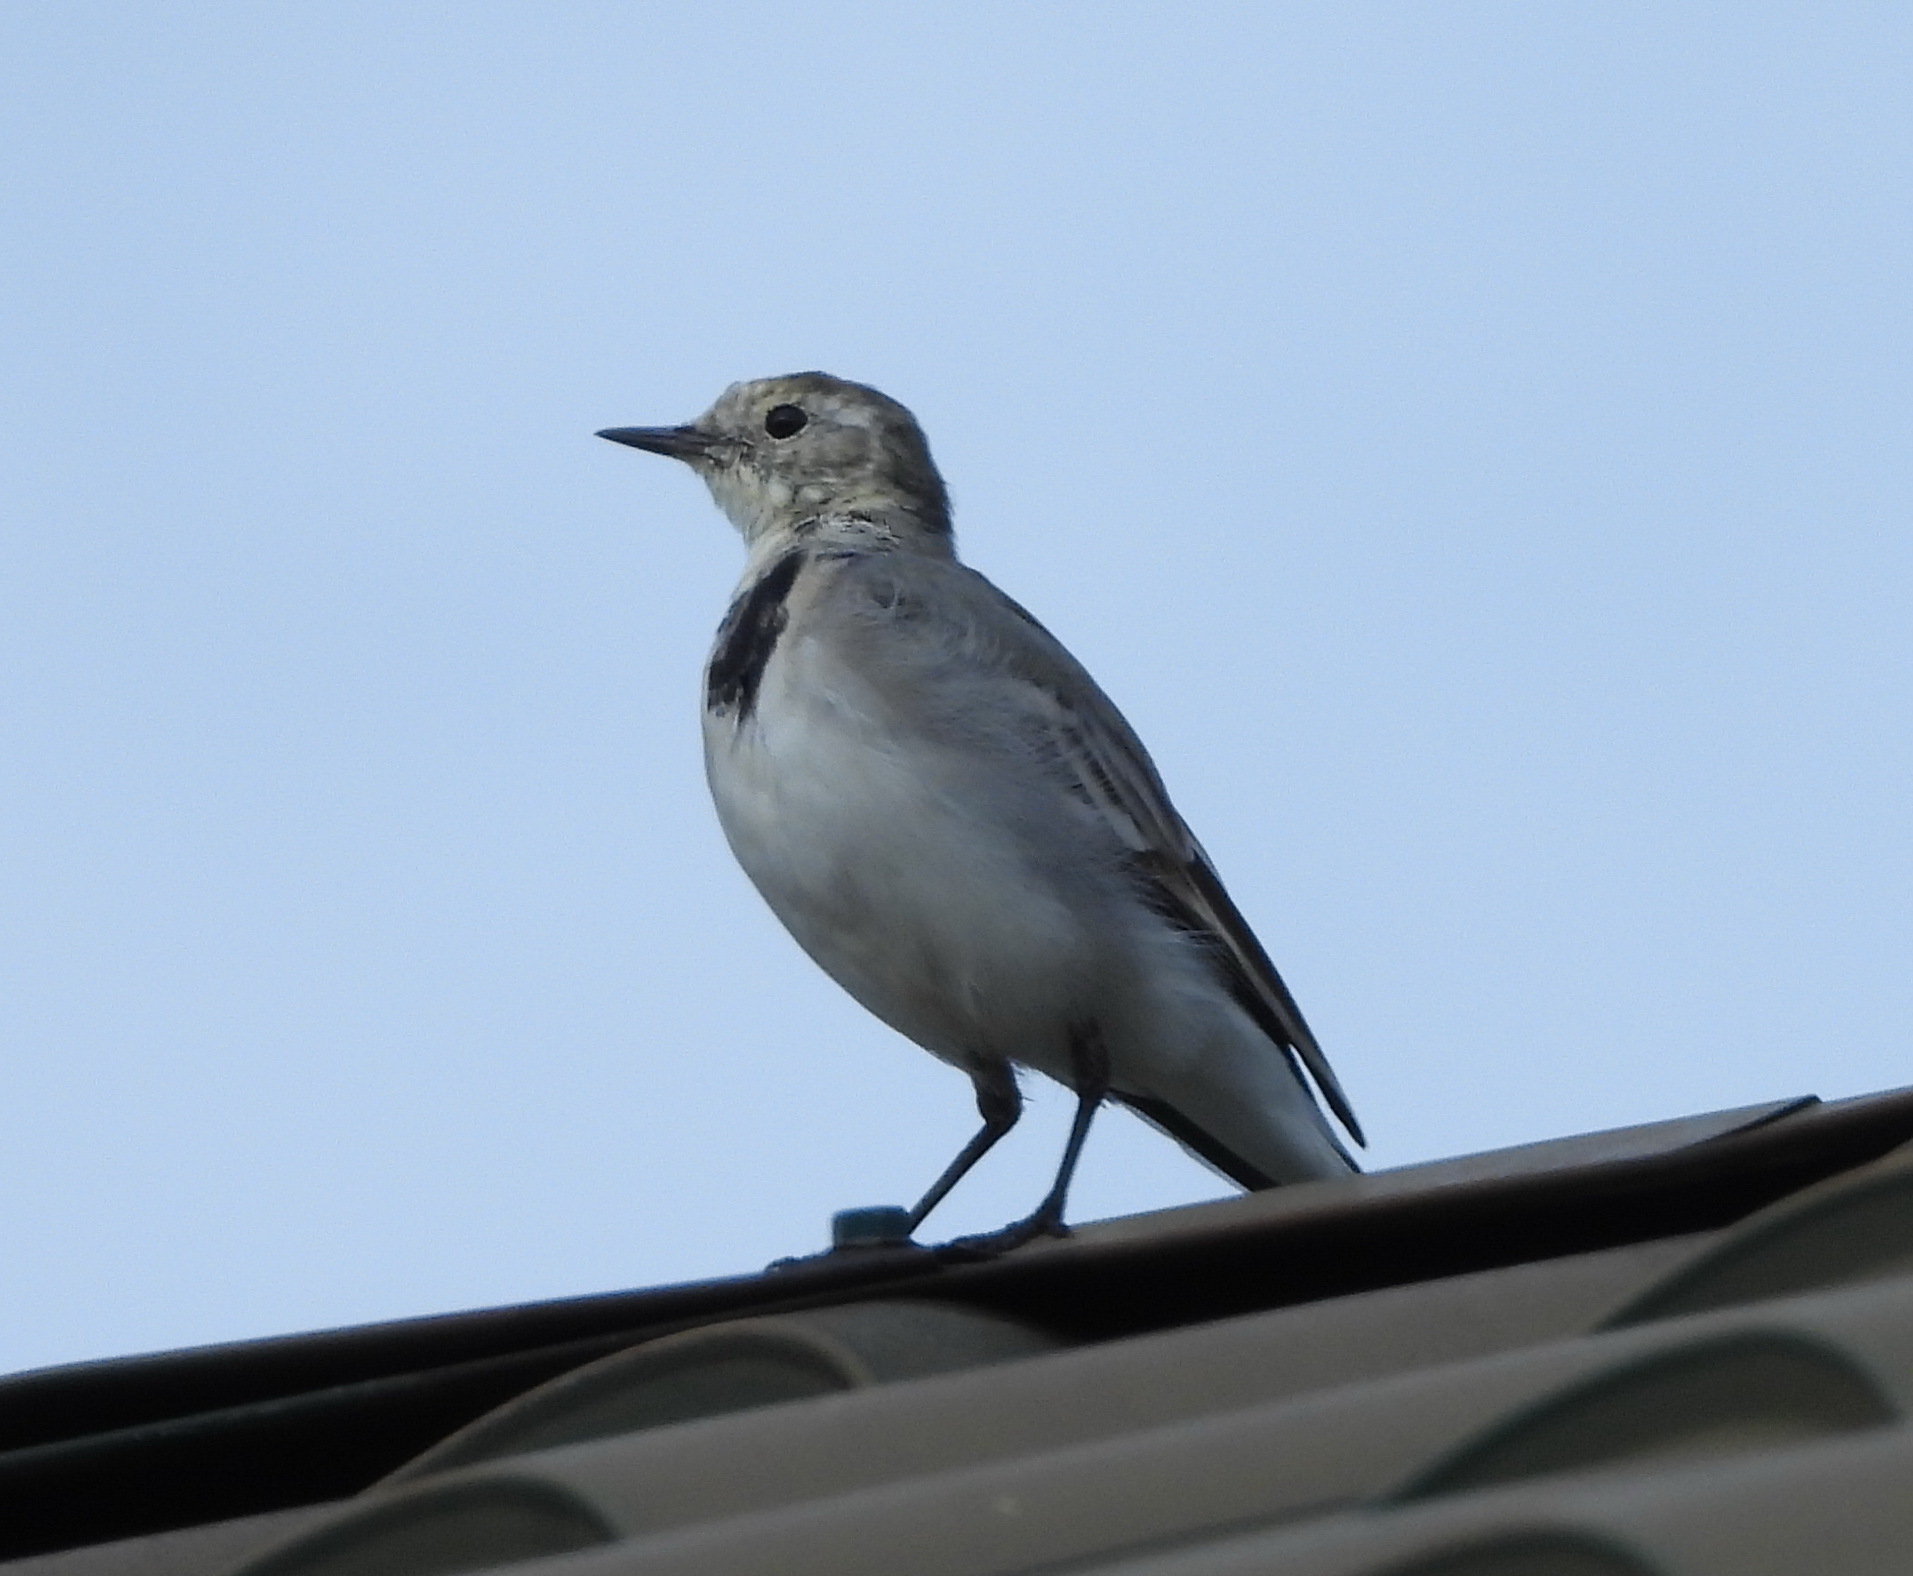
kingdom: Animalia
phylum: Chordata
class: Aves
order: Passeriformes
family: Motacillidae
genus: Motacilla
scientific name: Motacilla alba
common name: White wagtail
